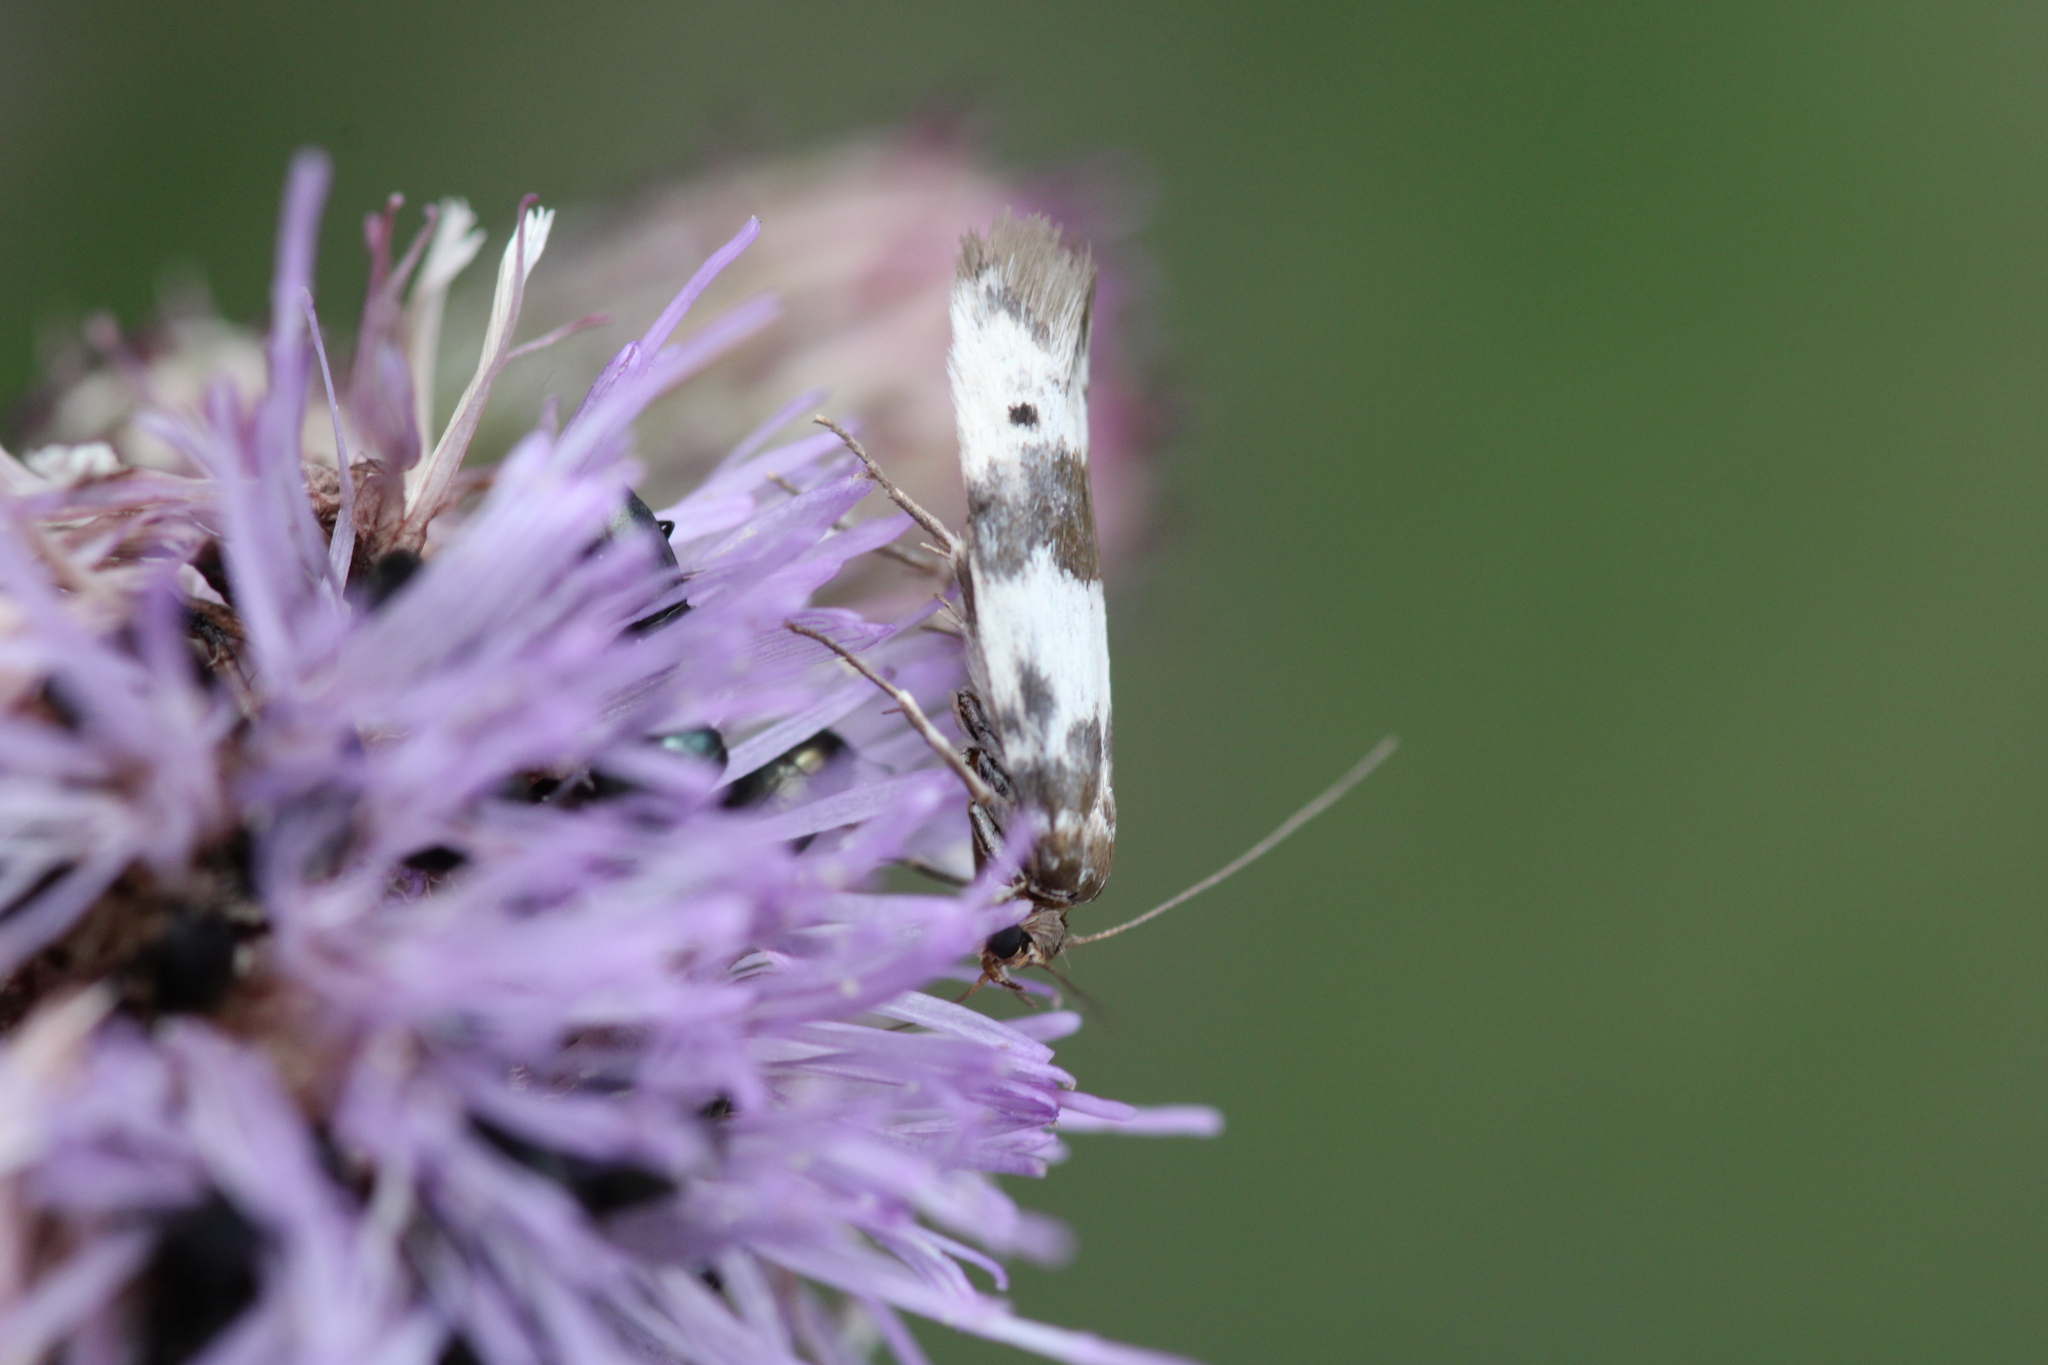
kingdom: Animalia
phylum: Arthropoda
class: Insecta
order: Lepidoptera
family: Scythrididae
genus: Enolmis
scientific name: Enolmis acanthella
